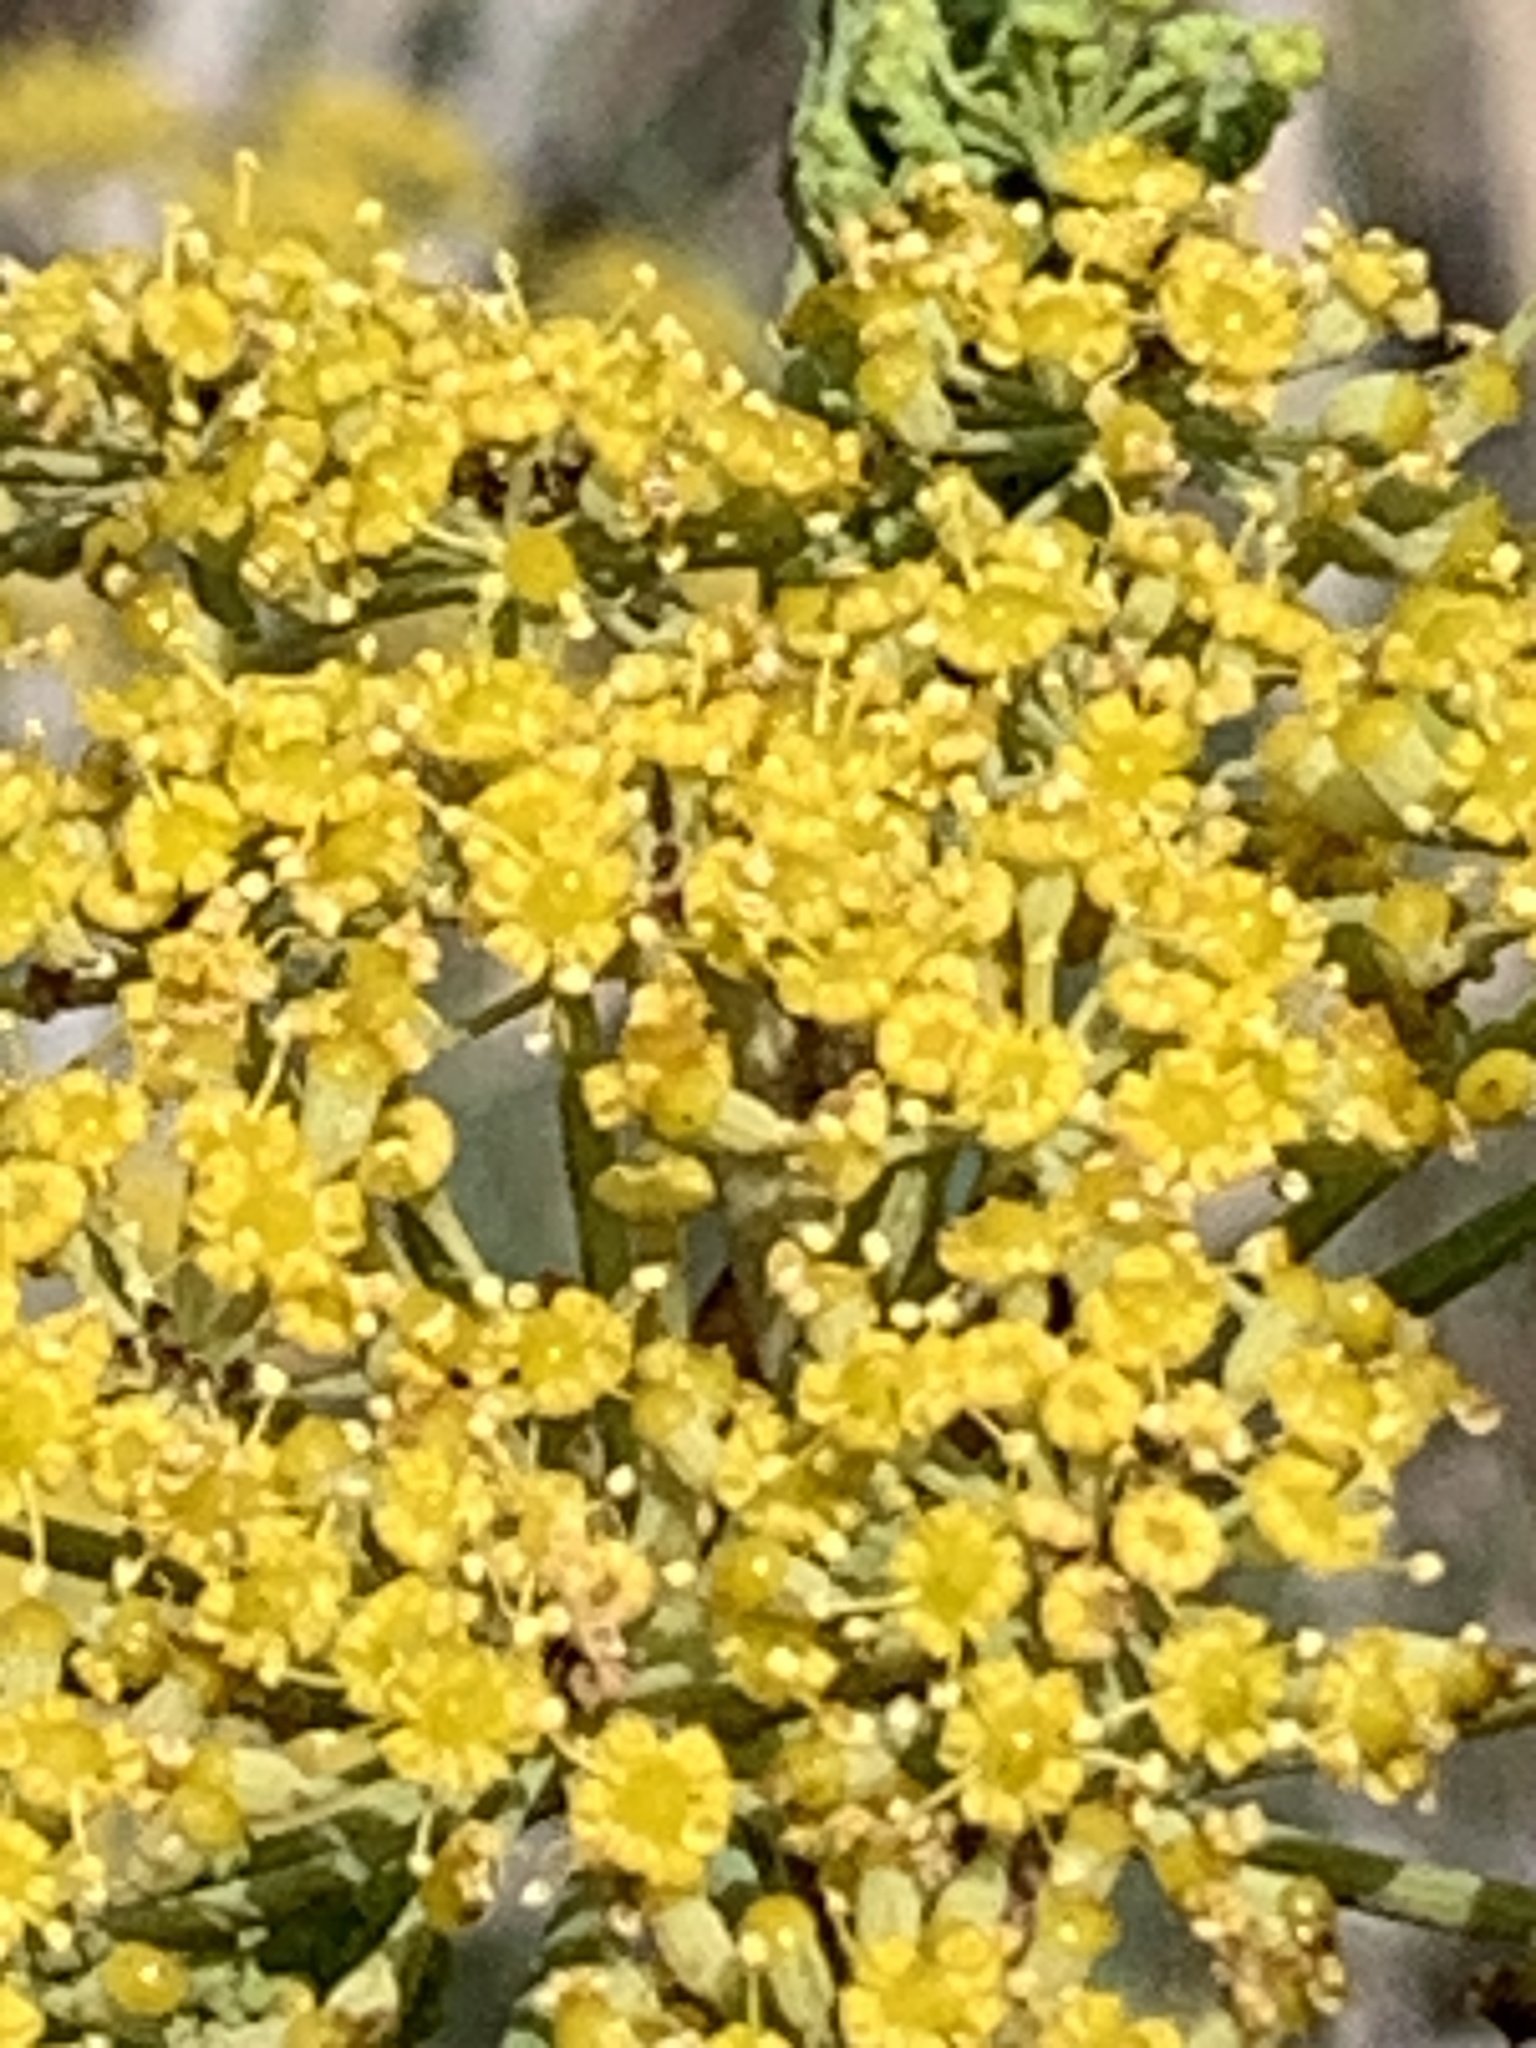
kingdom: Plantae
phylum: Tracheophyta
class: Magnoliopsida
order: Apiales
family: Apiaceae
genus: Foeniculum
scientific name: Foeniculum vulgare
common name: Fennel
